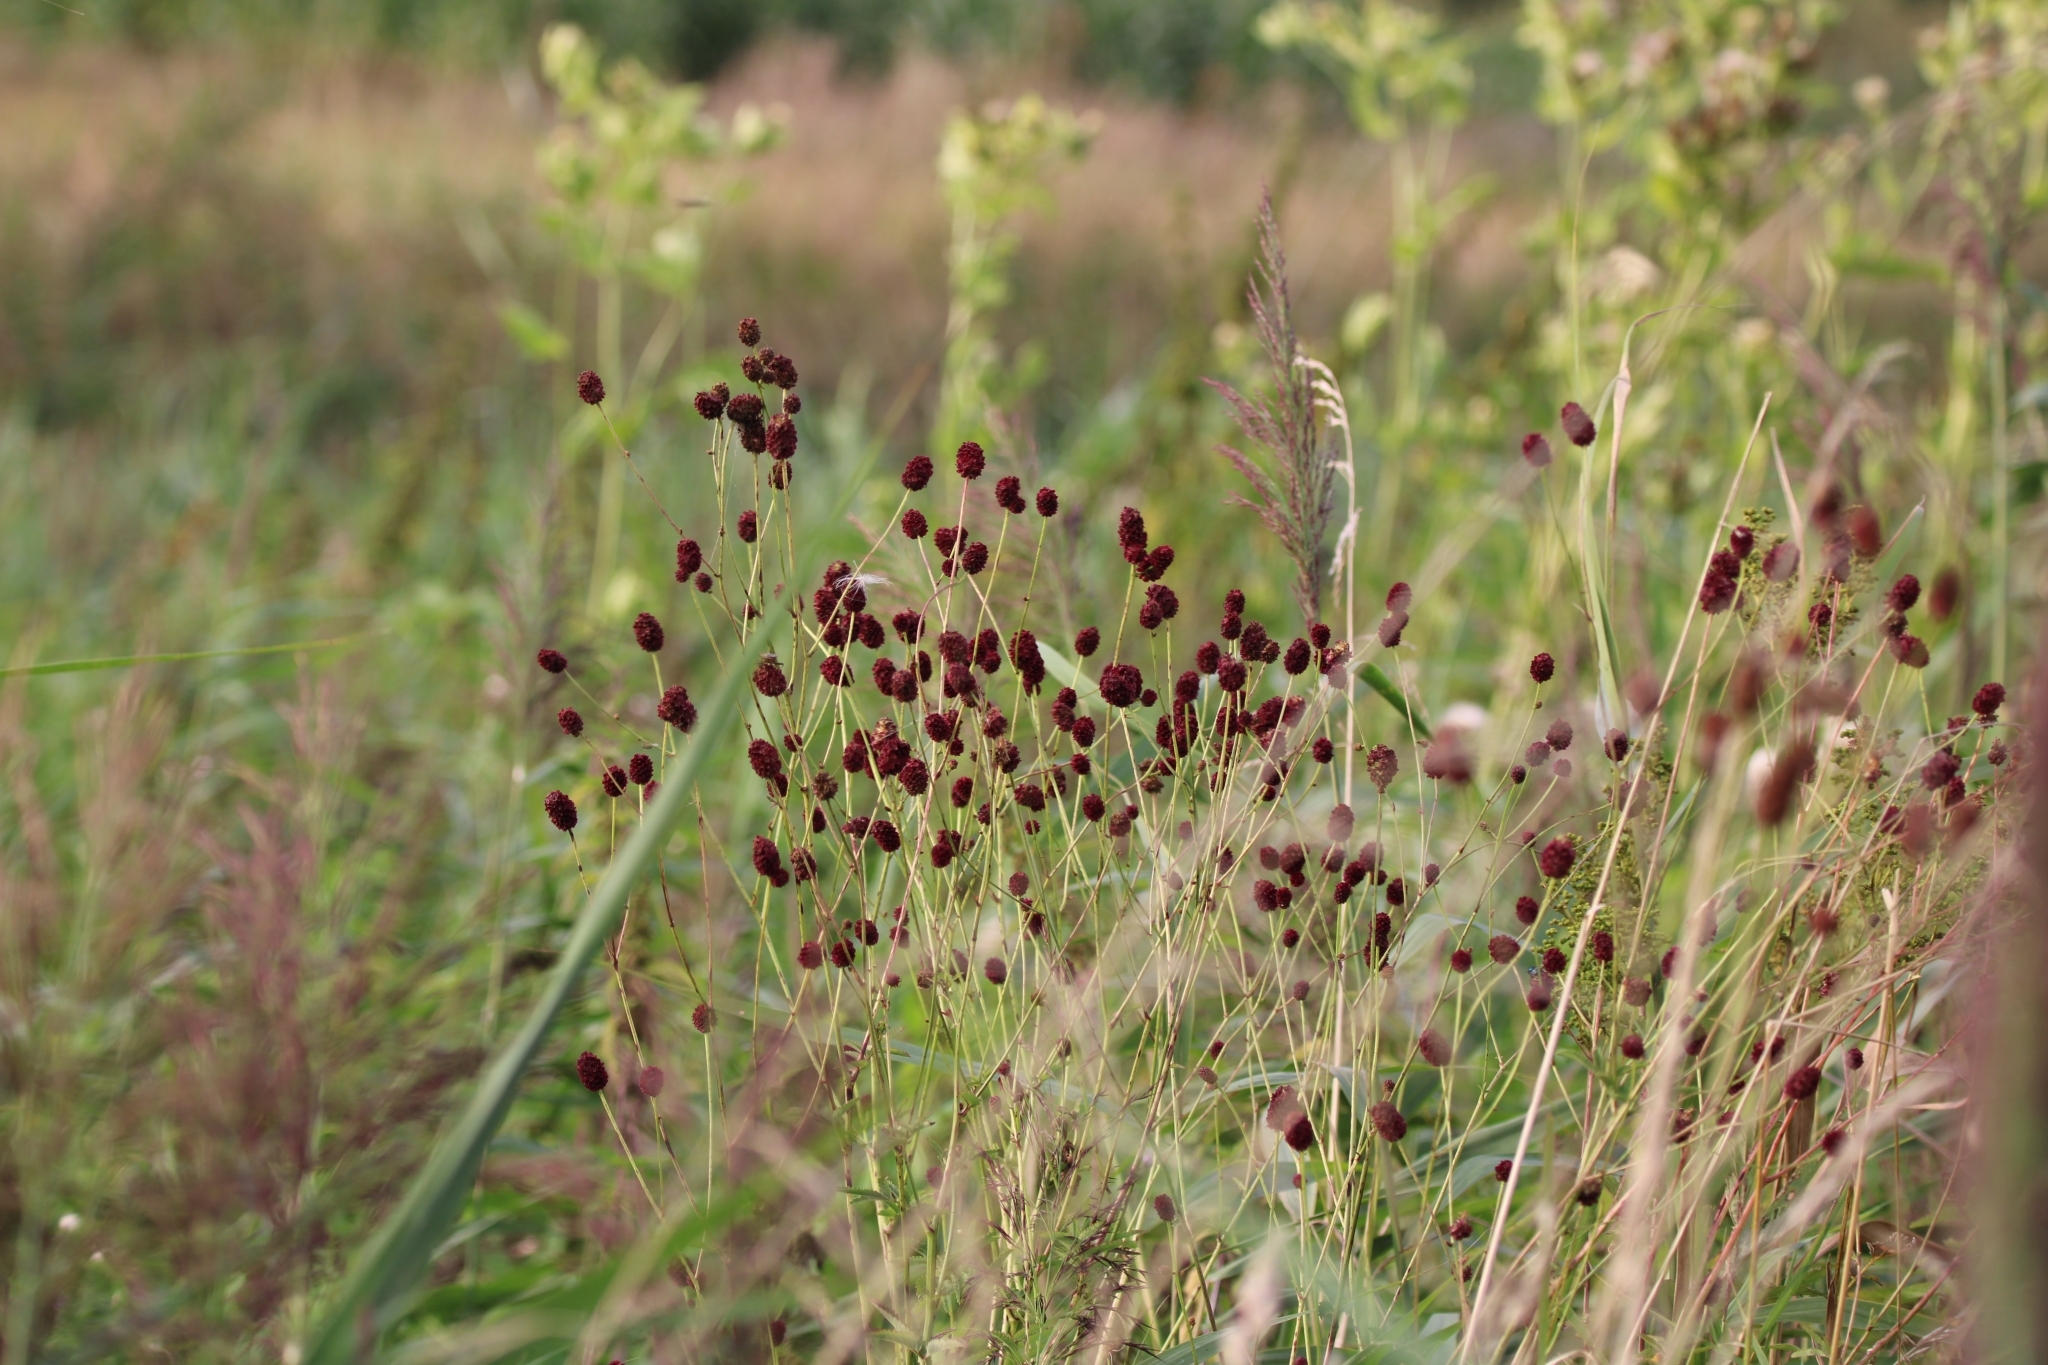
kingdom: Plantae
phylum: Tracheophyta
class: Magnoliopsida
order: Rosales
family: Rosaceae
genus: Sanguisorba
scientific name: Sanguisorba officinalis
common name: Great burnet
